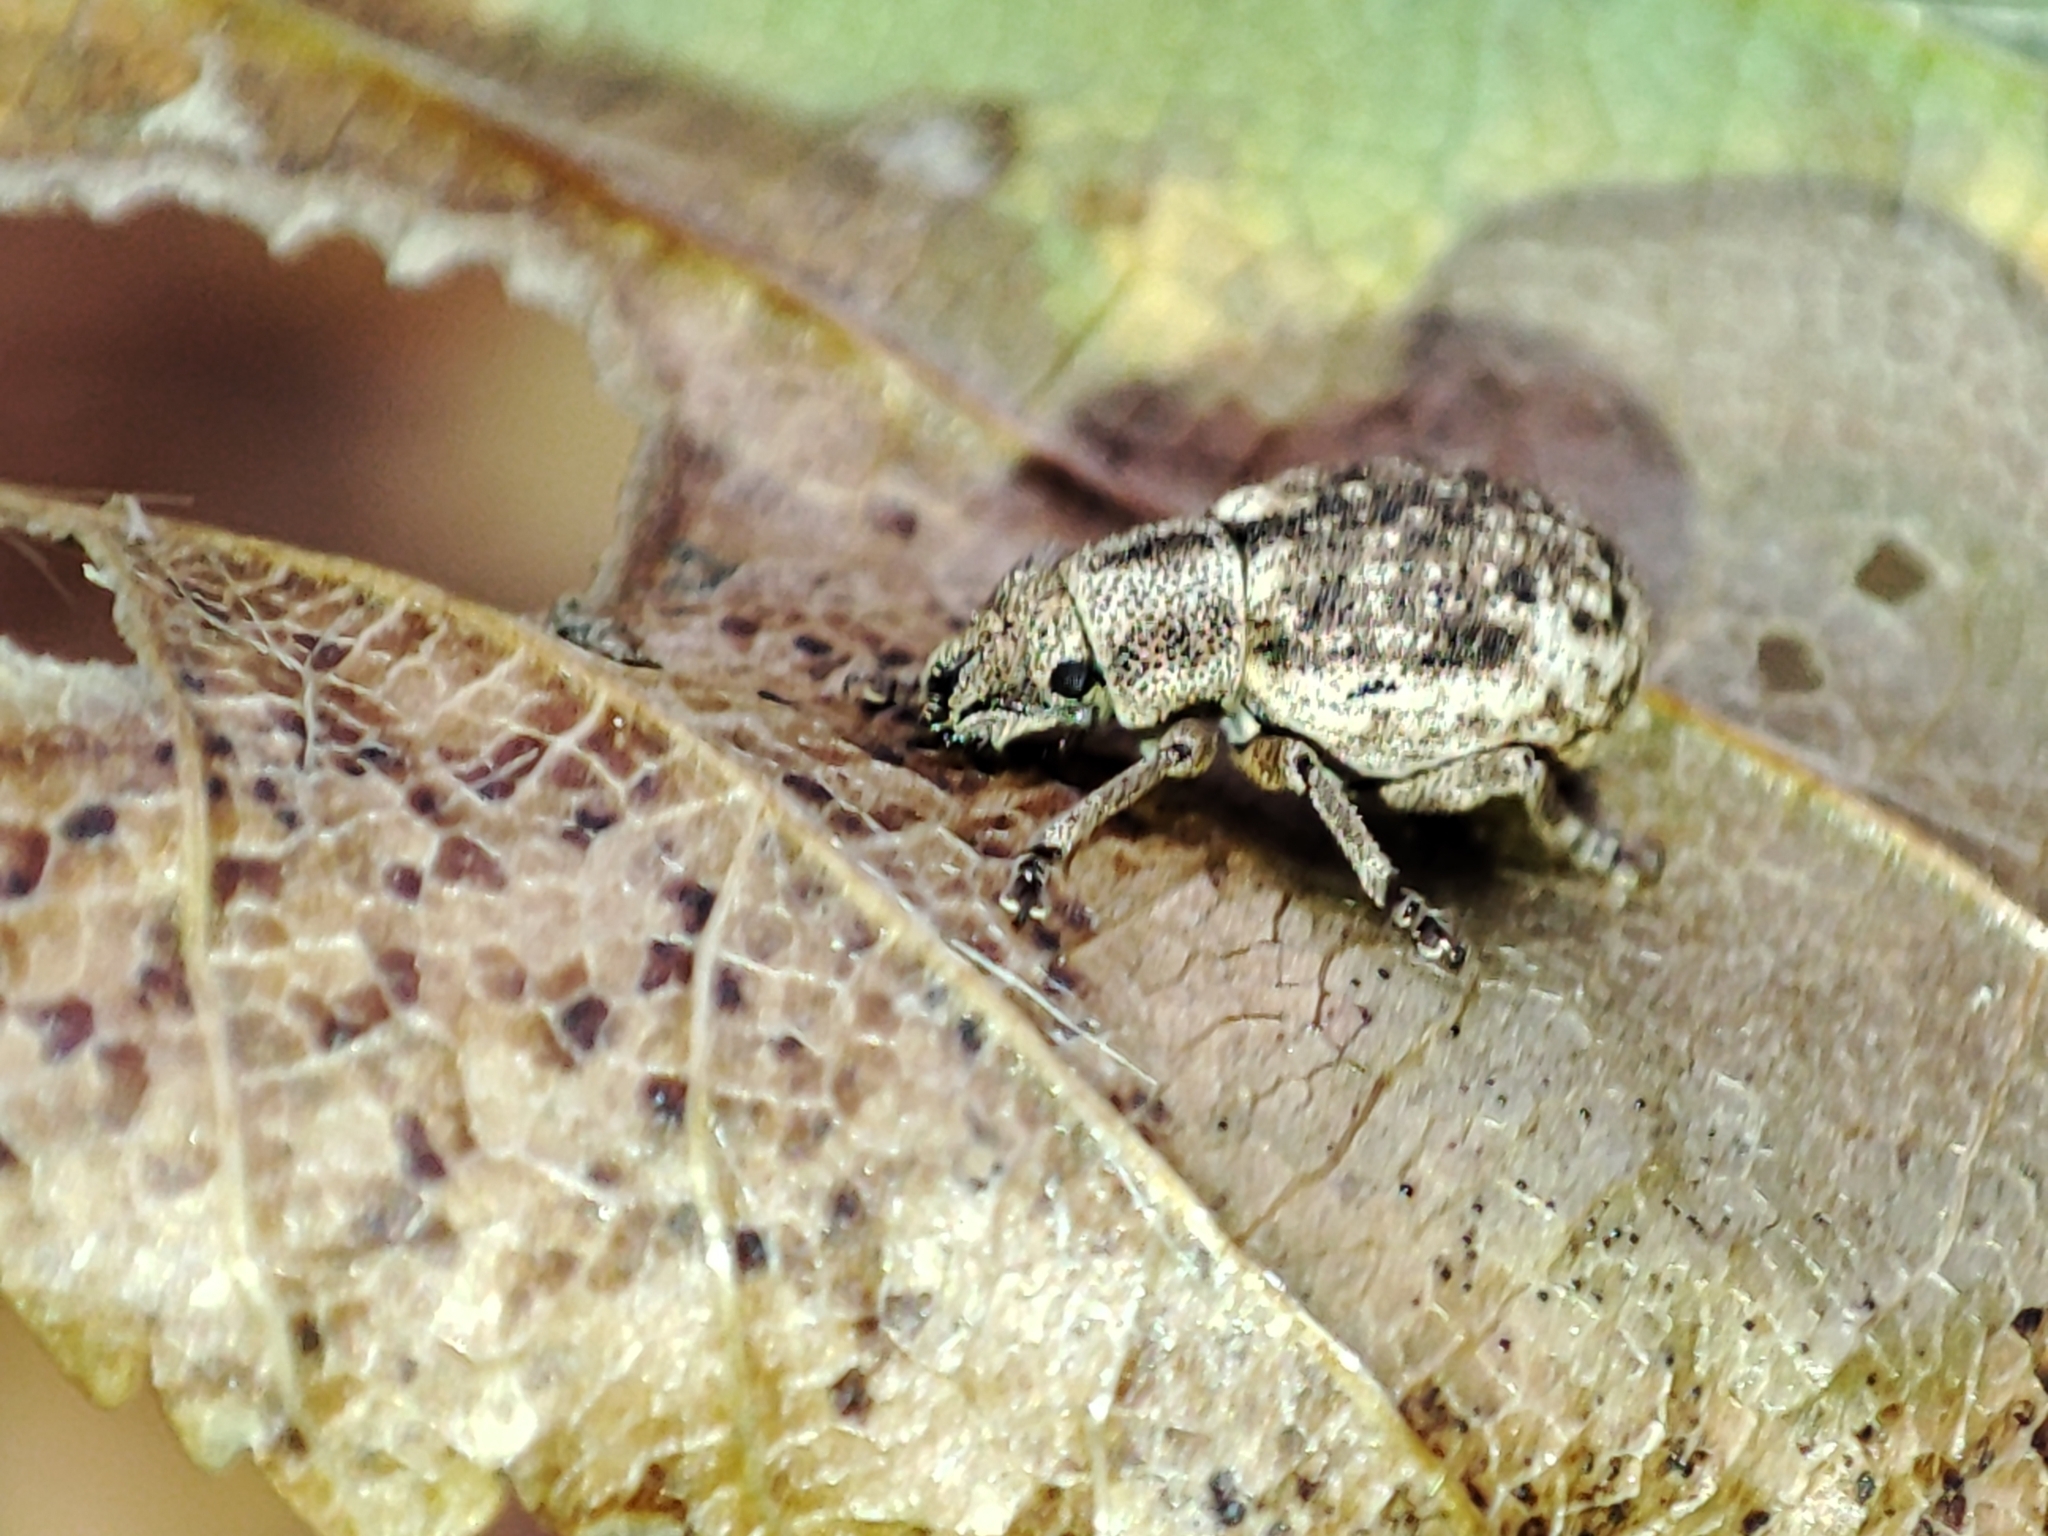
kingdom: Animalia
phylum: Arthropoda
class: Insecta
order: Coleoptera
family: Curculionidae
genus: Strophosoma
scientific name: Strophosoma capitatum
